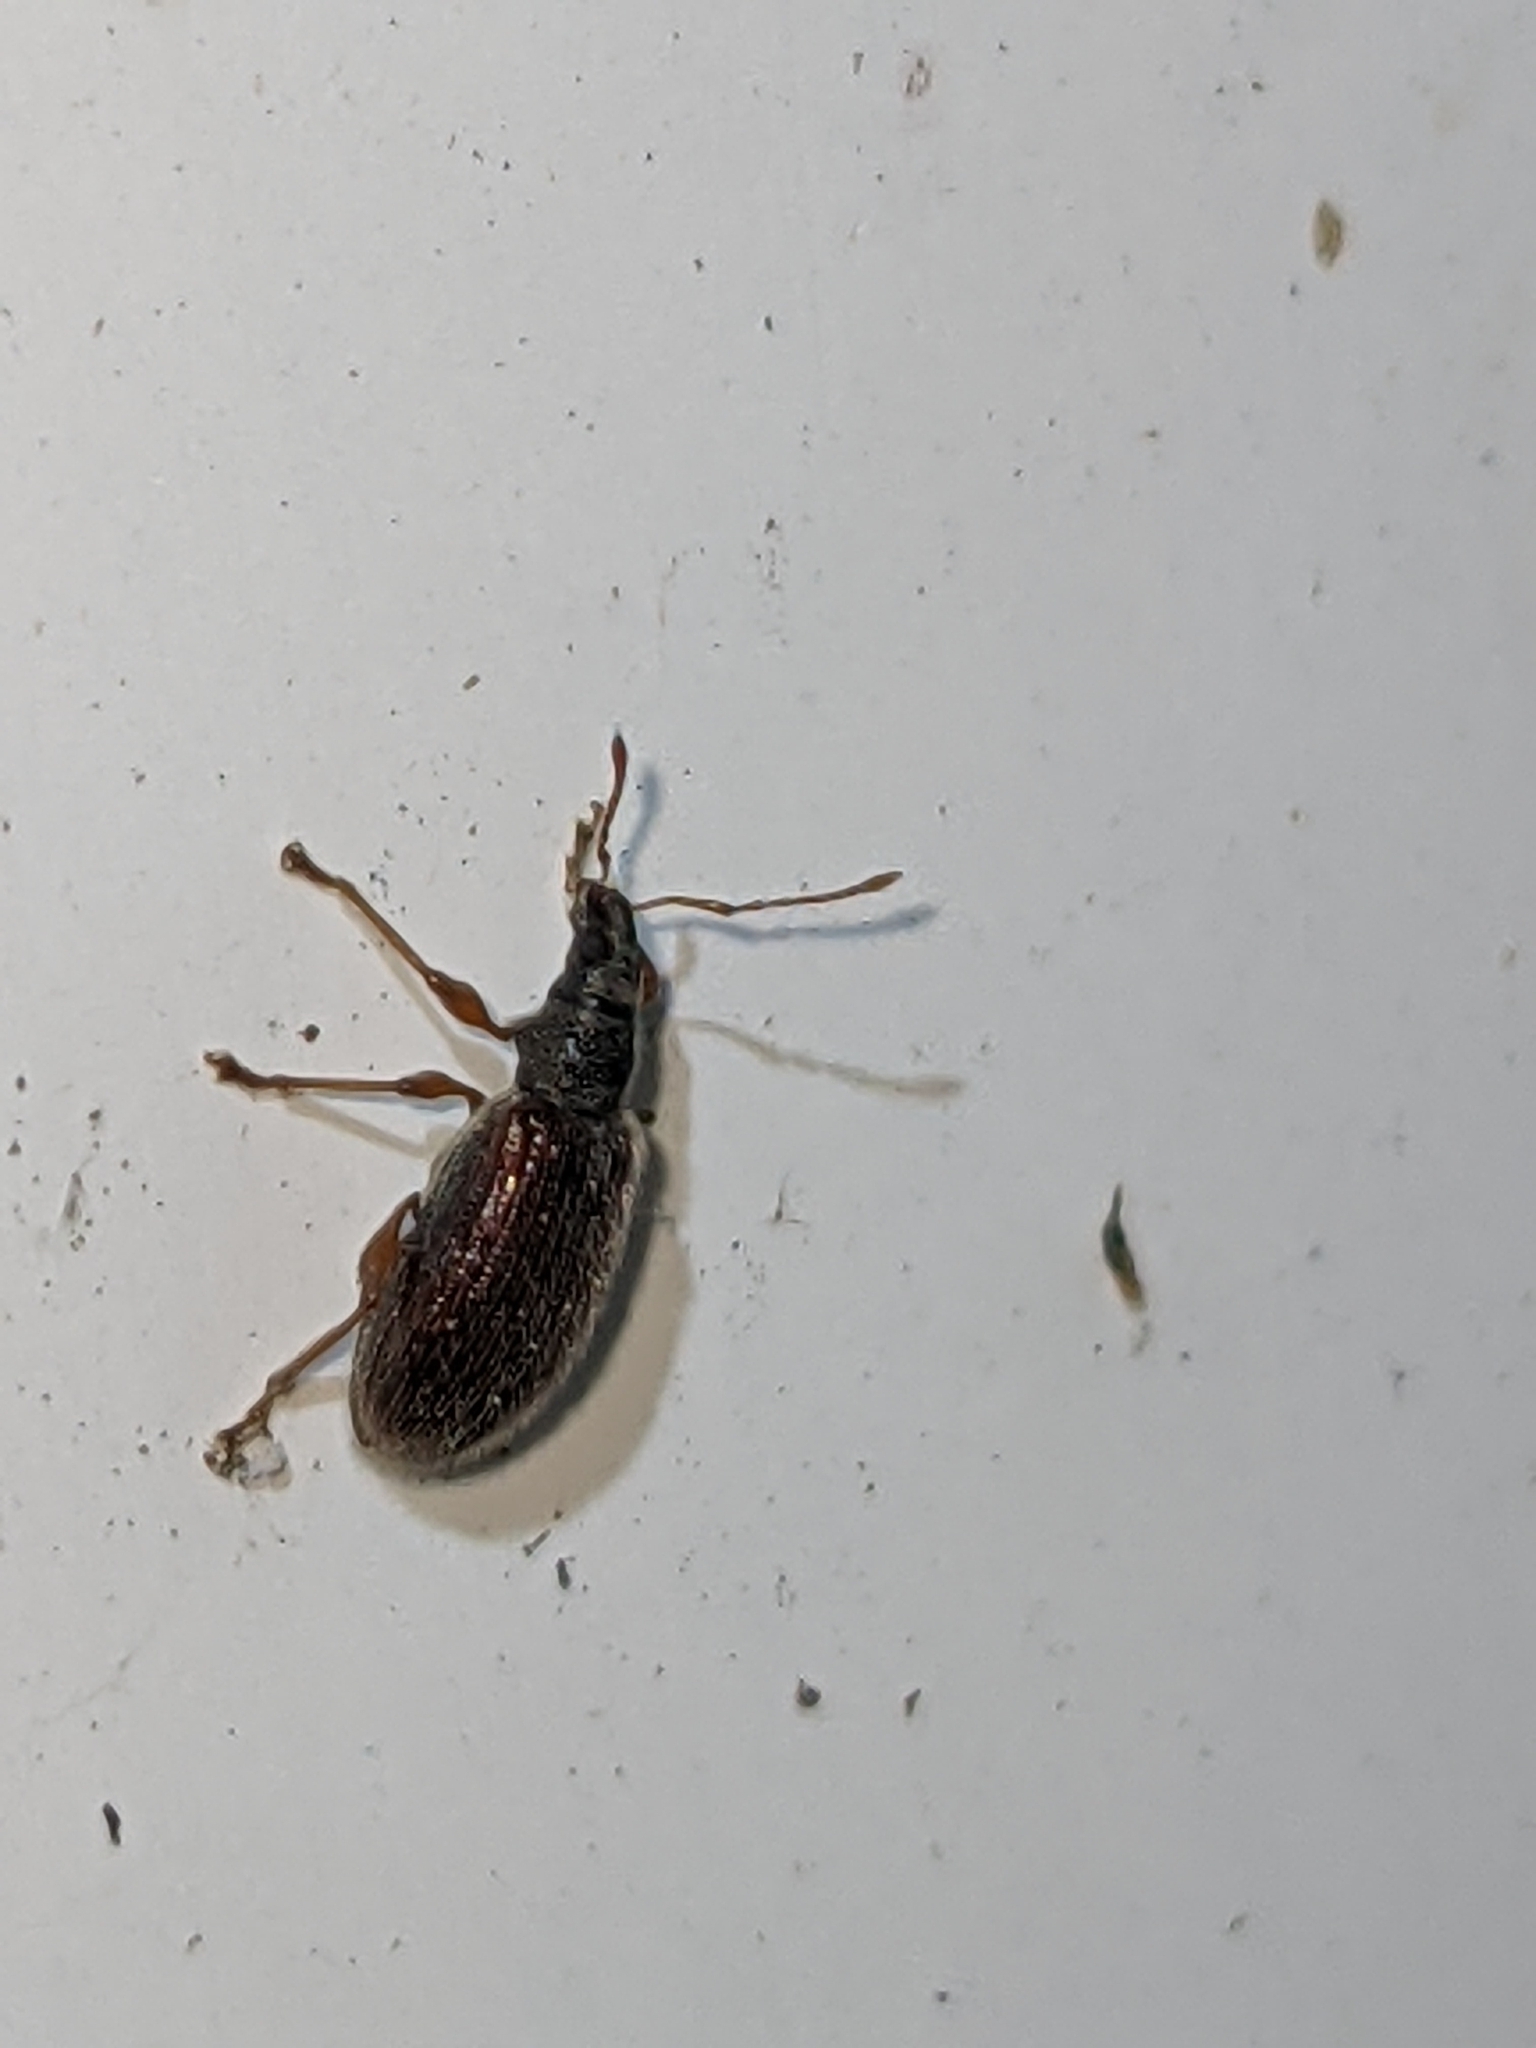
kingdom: Animalia
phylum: Arthropoda
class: Insecta
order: Coleoptera
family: Curculionidae
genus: Phyllobius
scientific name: Phyllobius oblongus
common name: Brown leaf weevil
